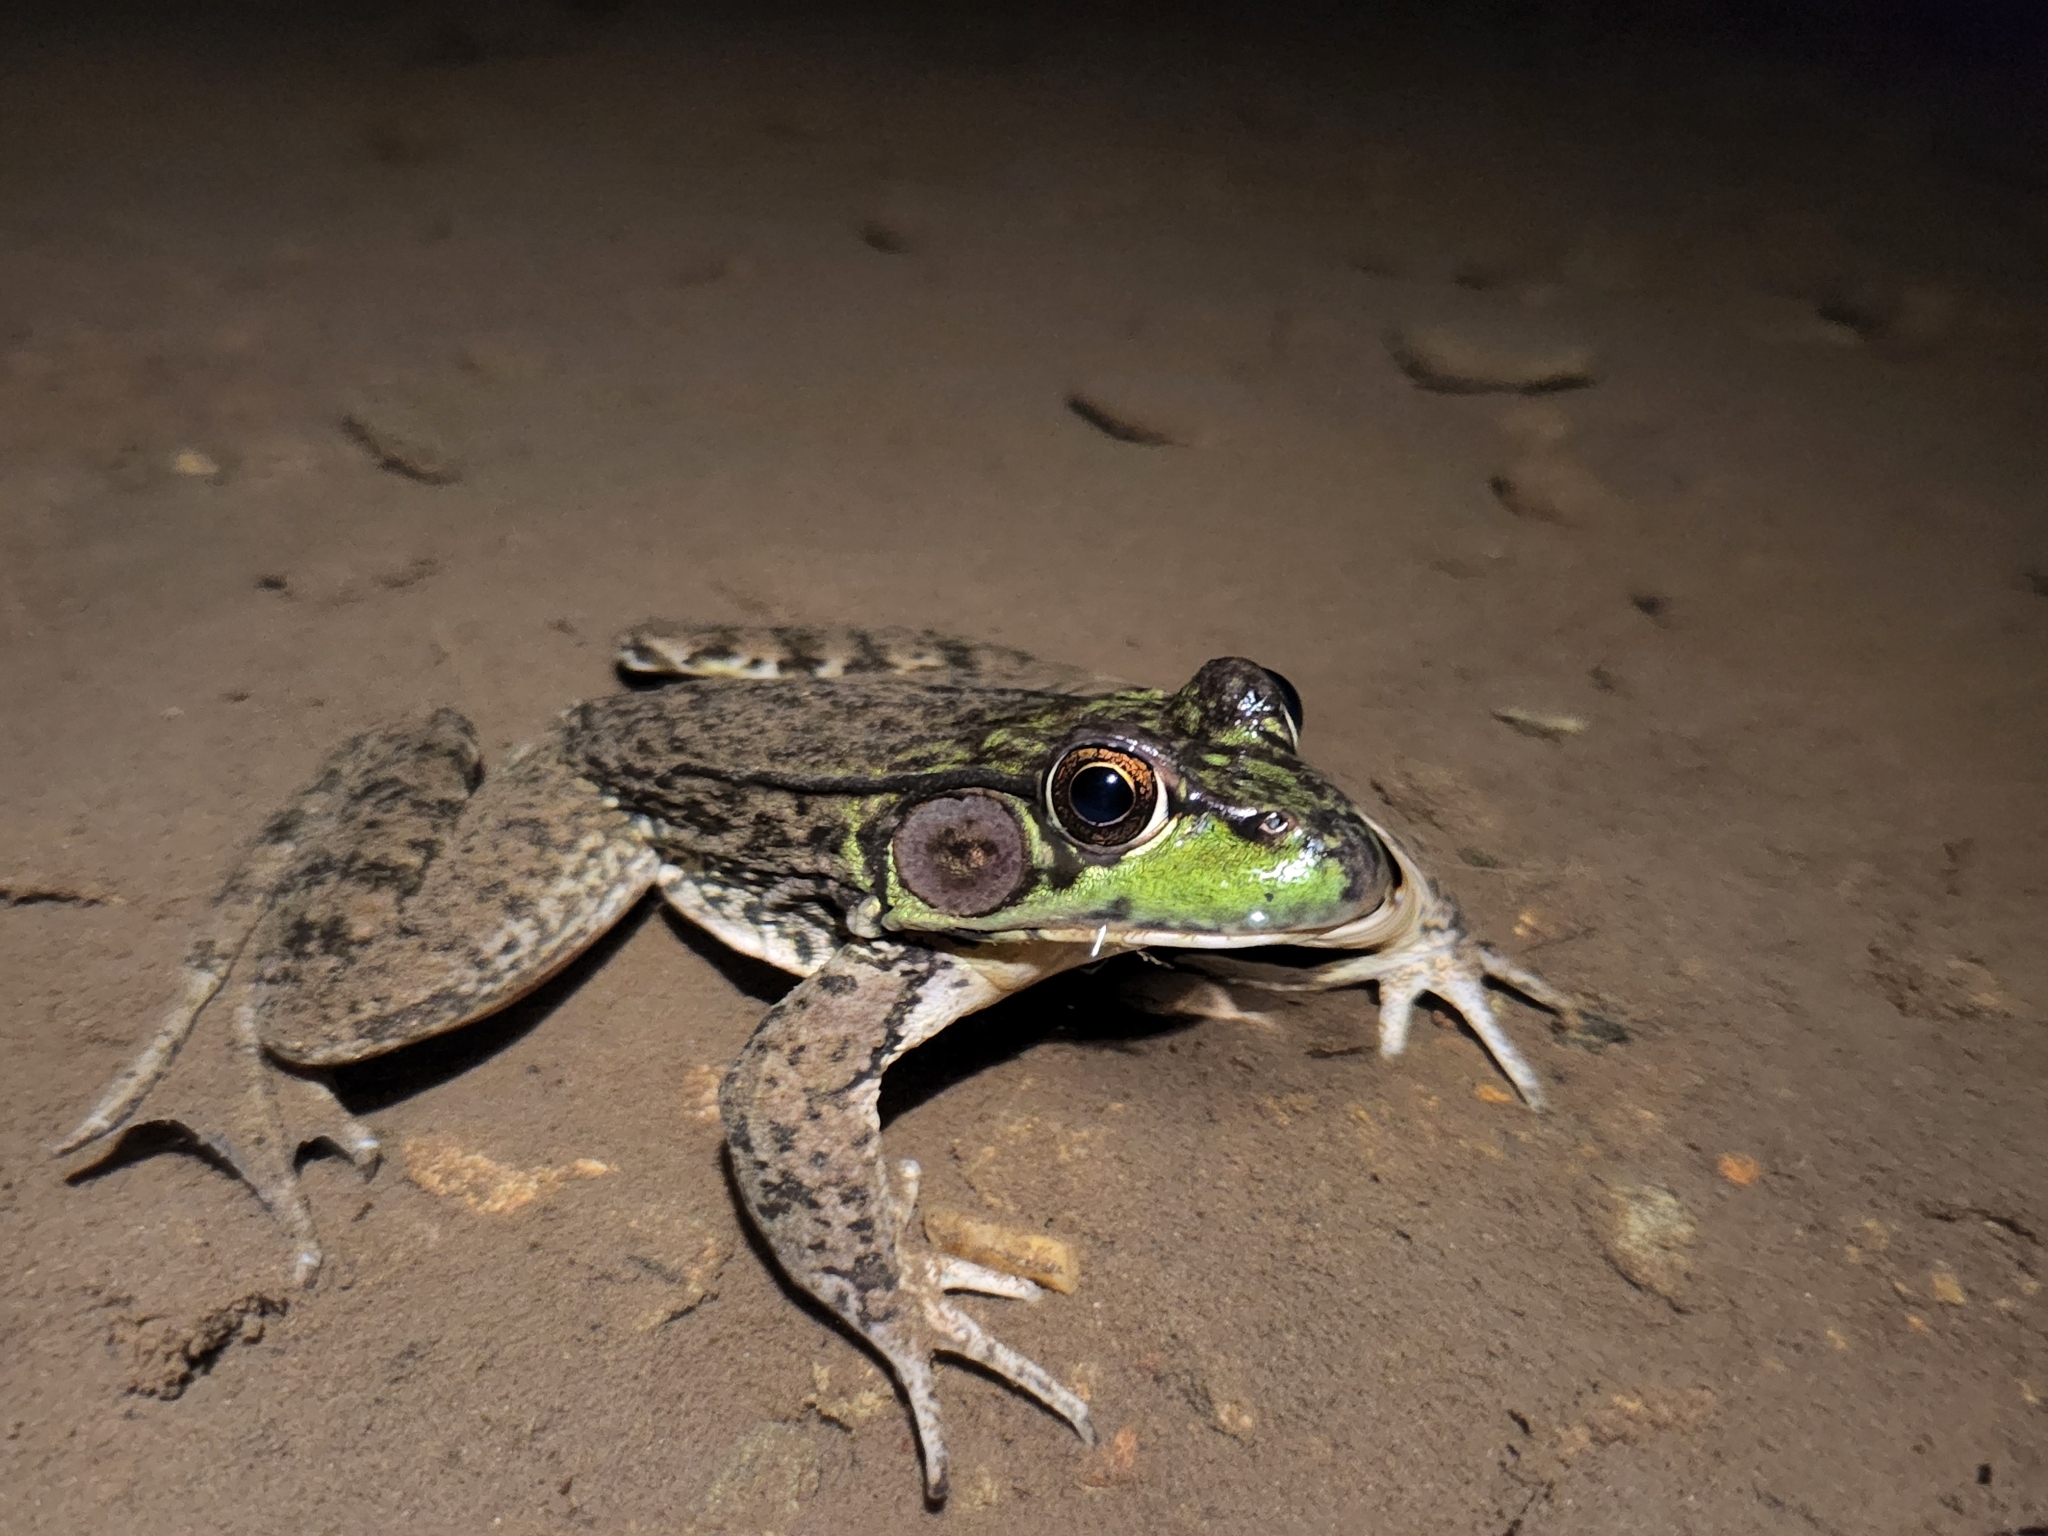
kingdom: Animalia
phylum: Chordata
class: Amphibia
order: Anura
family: Ranidae
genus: Lithobates
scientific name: Lithobates clamitans
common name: Green frog
